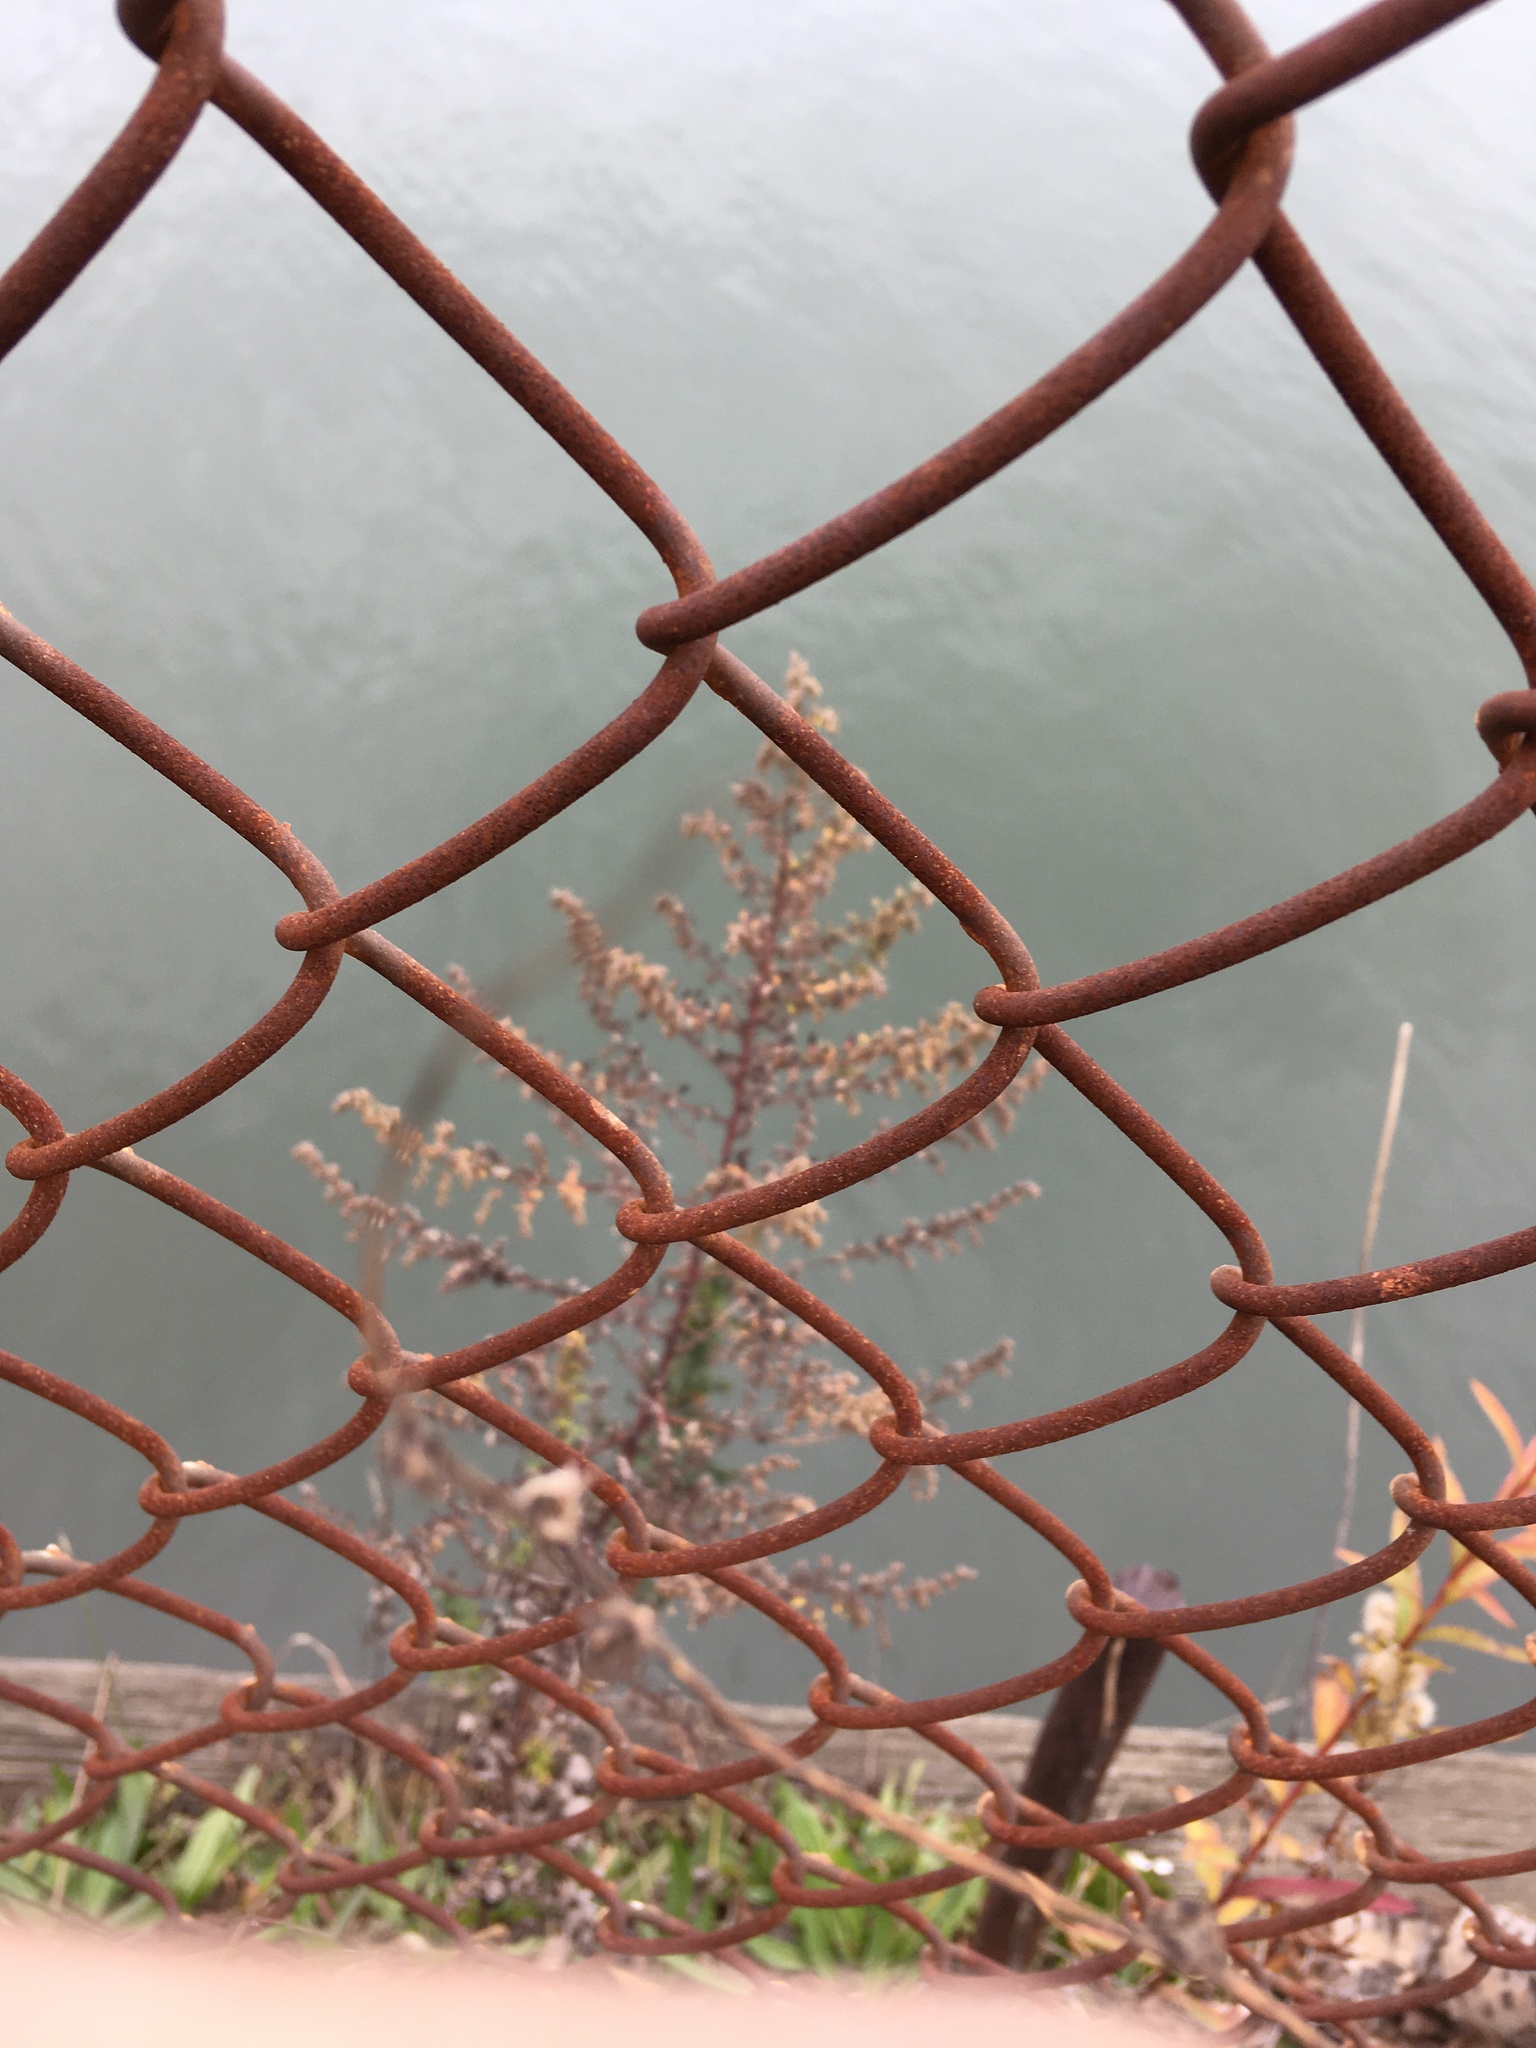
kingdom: Plantae
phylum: Tracheophyta
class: Magnoliopsida
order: Asterales
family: Asteraceae
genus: Artemisia
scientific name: Artemisia vulgaris
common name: Mugwort
